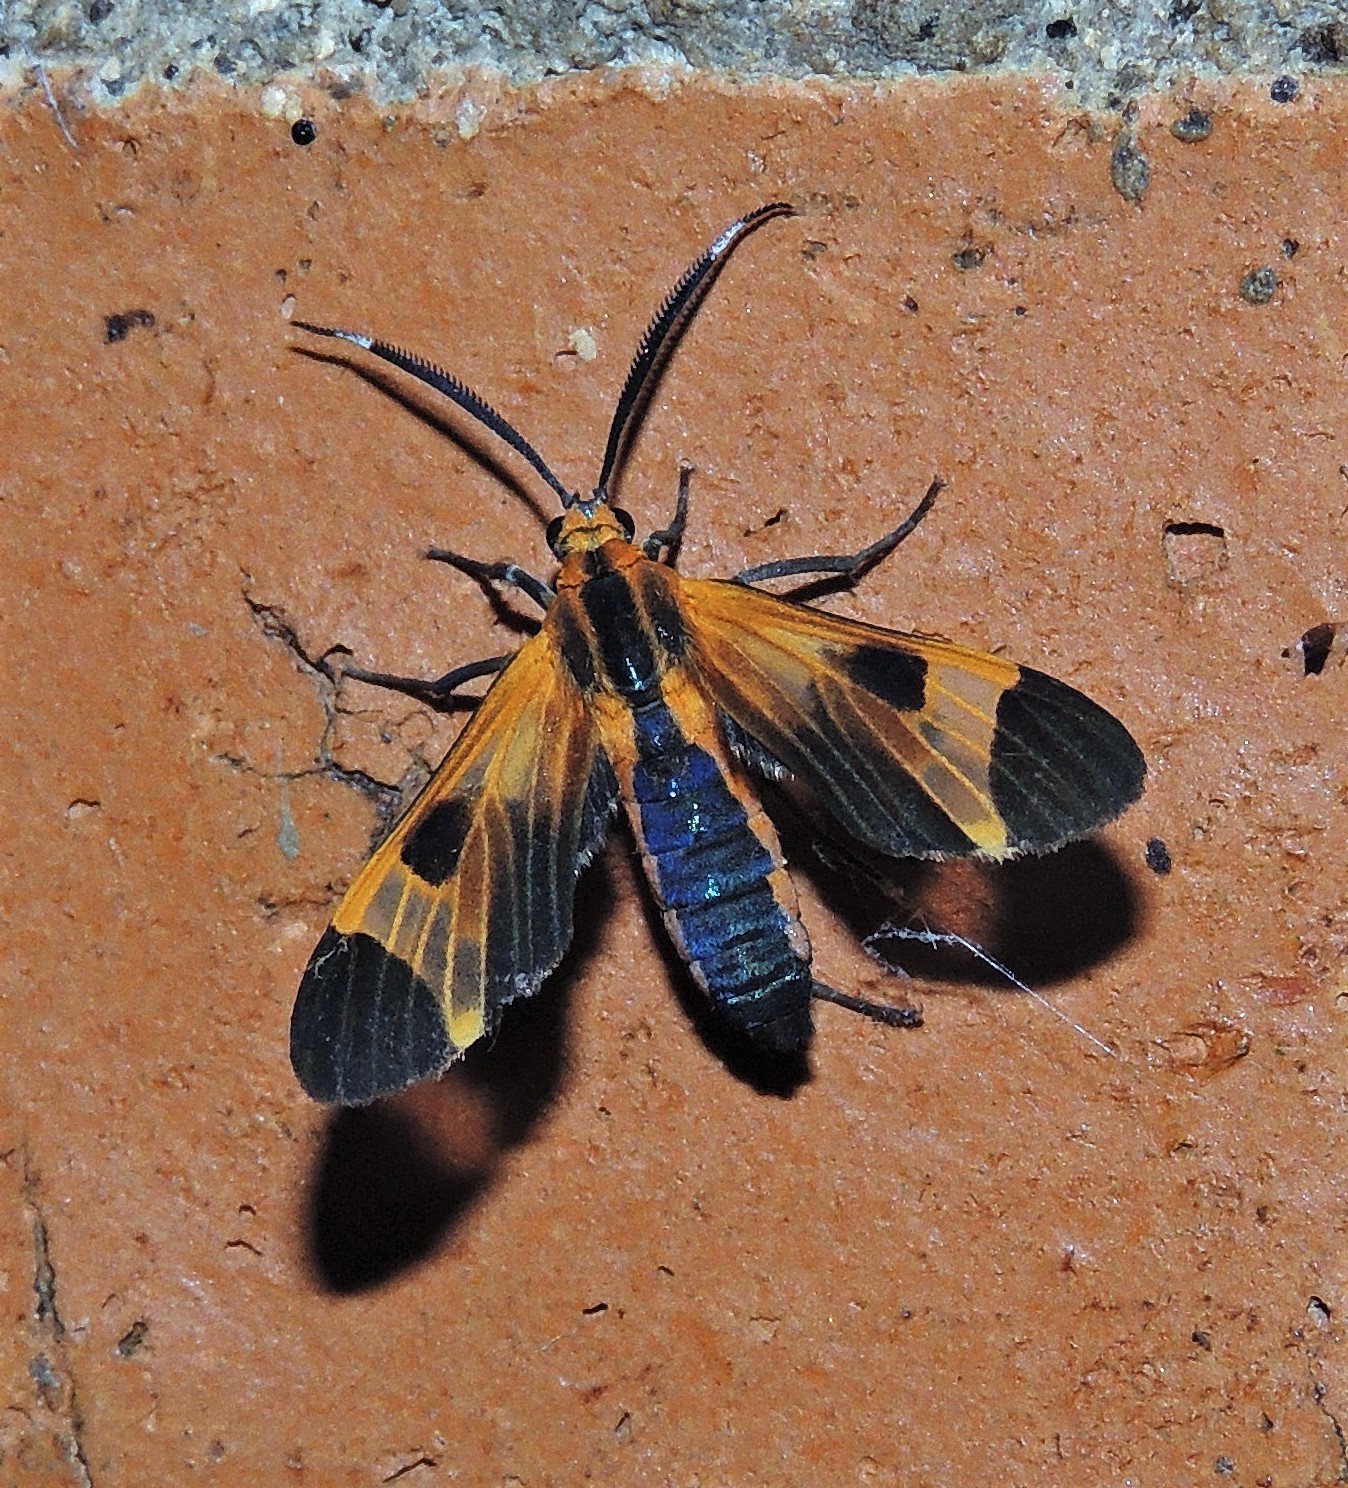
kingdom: Animalia
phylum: Arthropoda
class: Insecta
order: Lepidoptera
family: Erebidae
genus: Dycladia
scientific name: Dycladia lucetius
